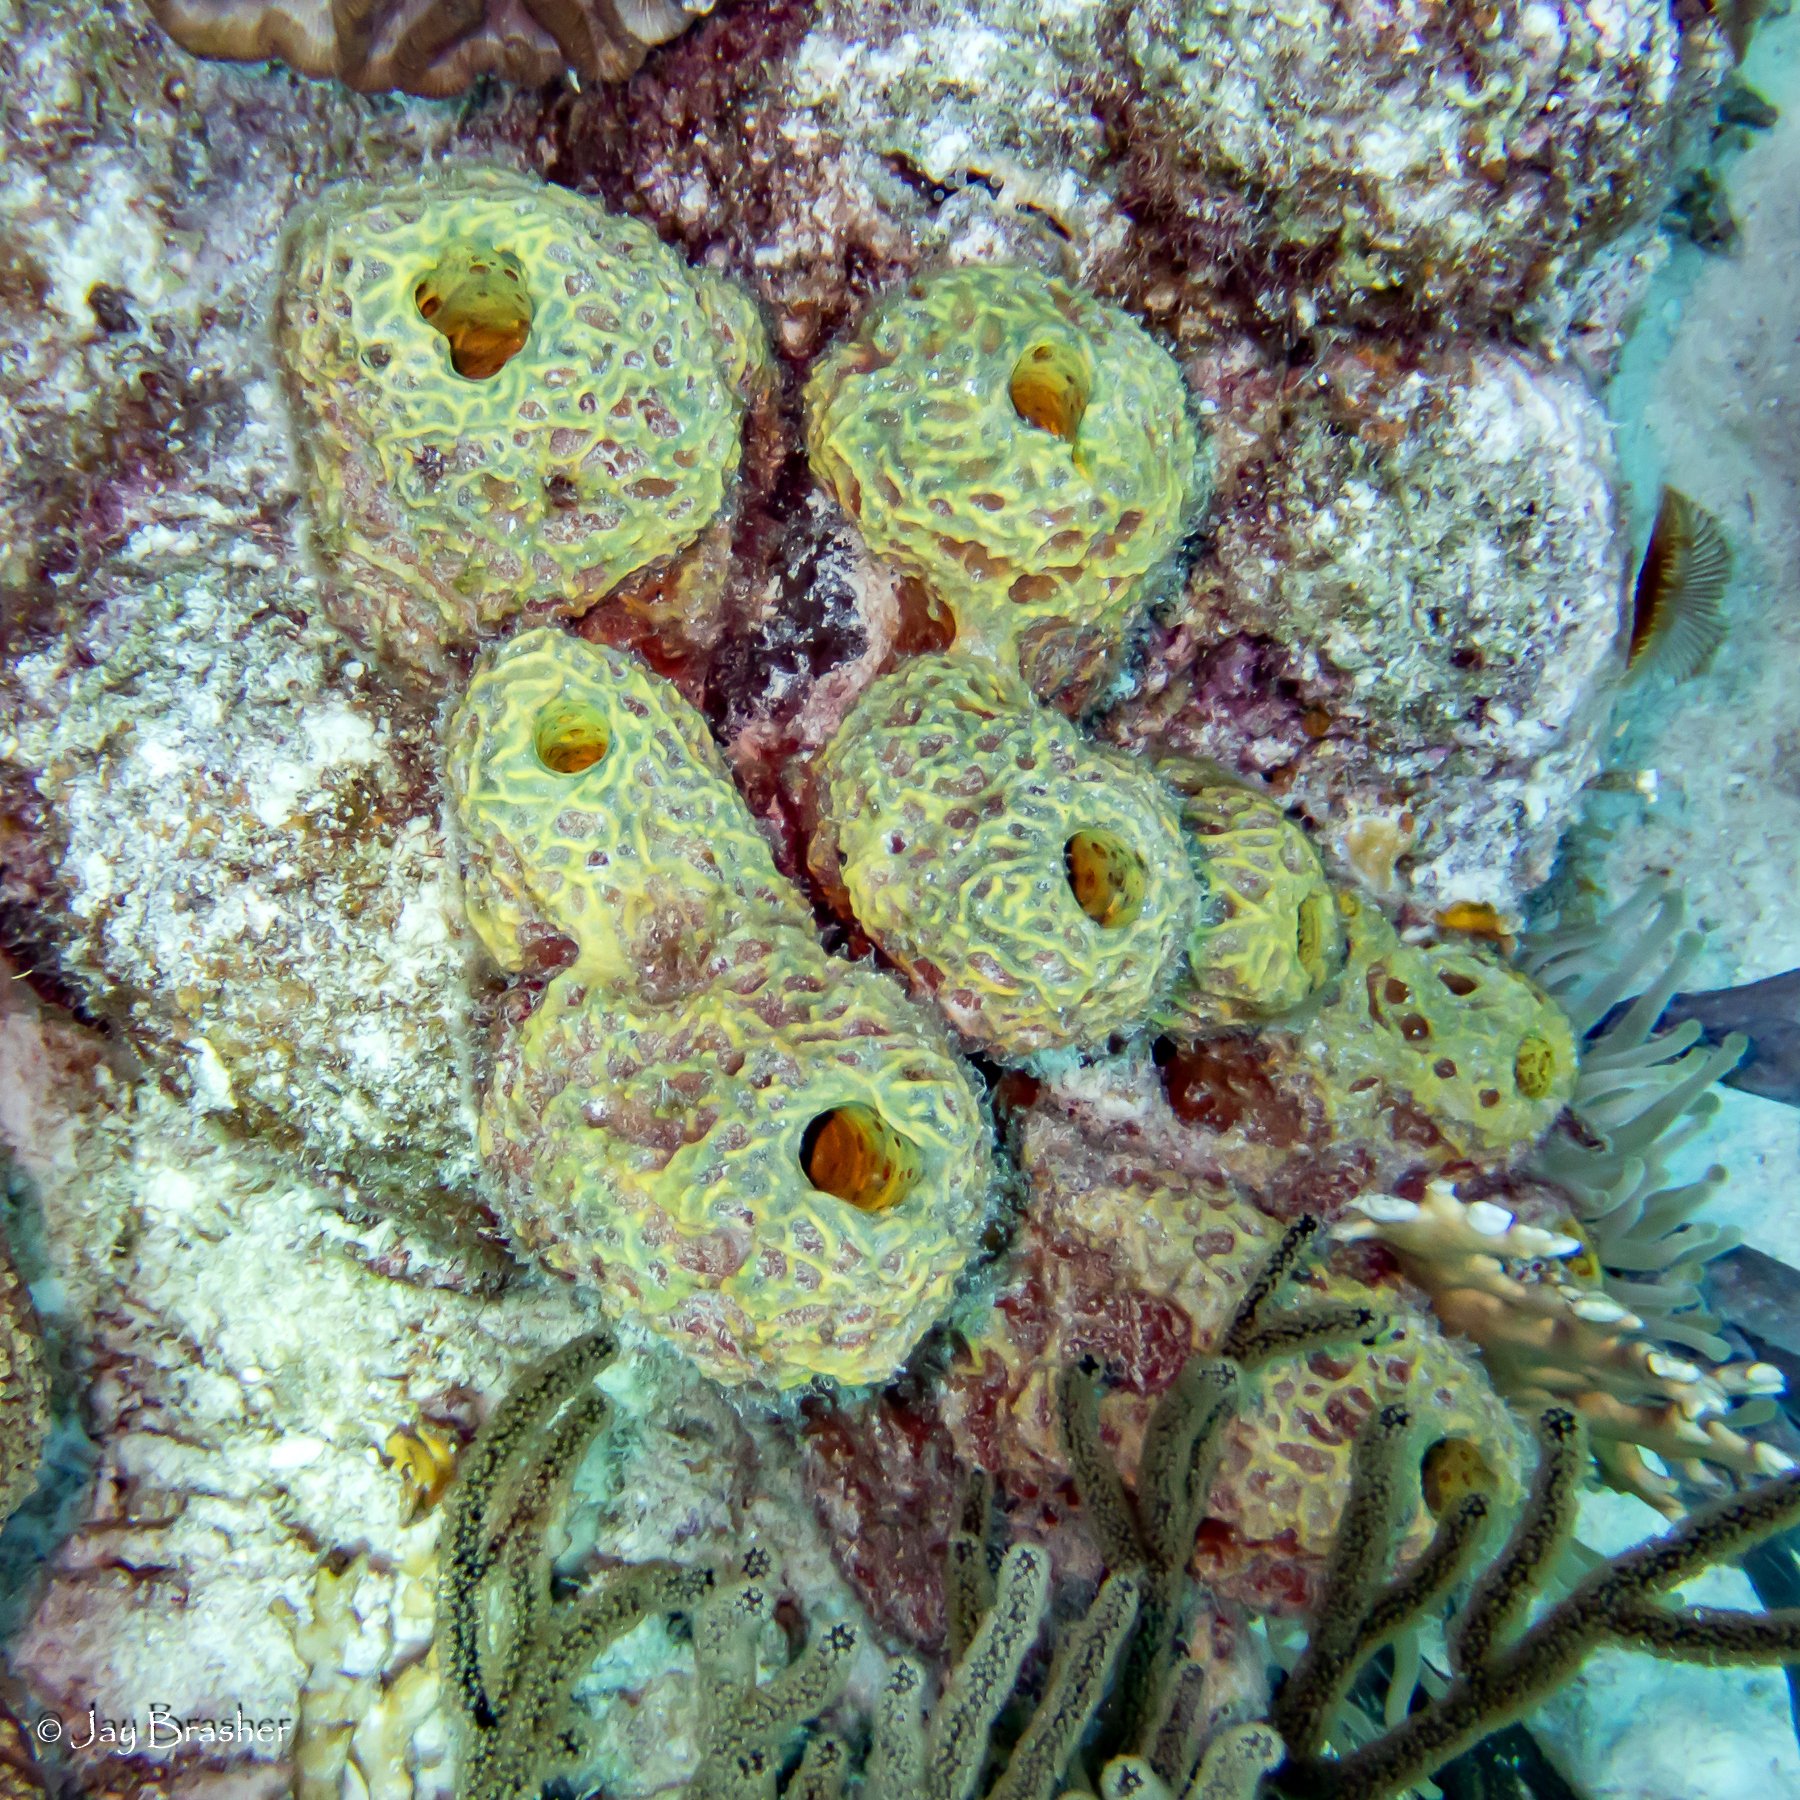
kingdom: Animalia
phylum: Porifera
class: Demospongiae
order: Verongiida
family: Aplysinidae
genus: Verongula
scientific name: Verongula rigida
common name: Pitted sponge
